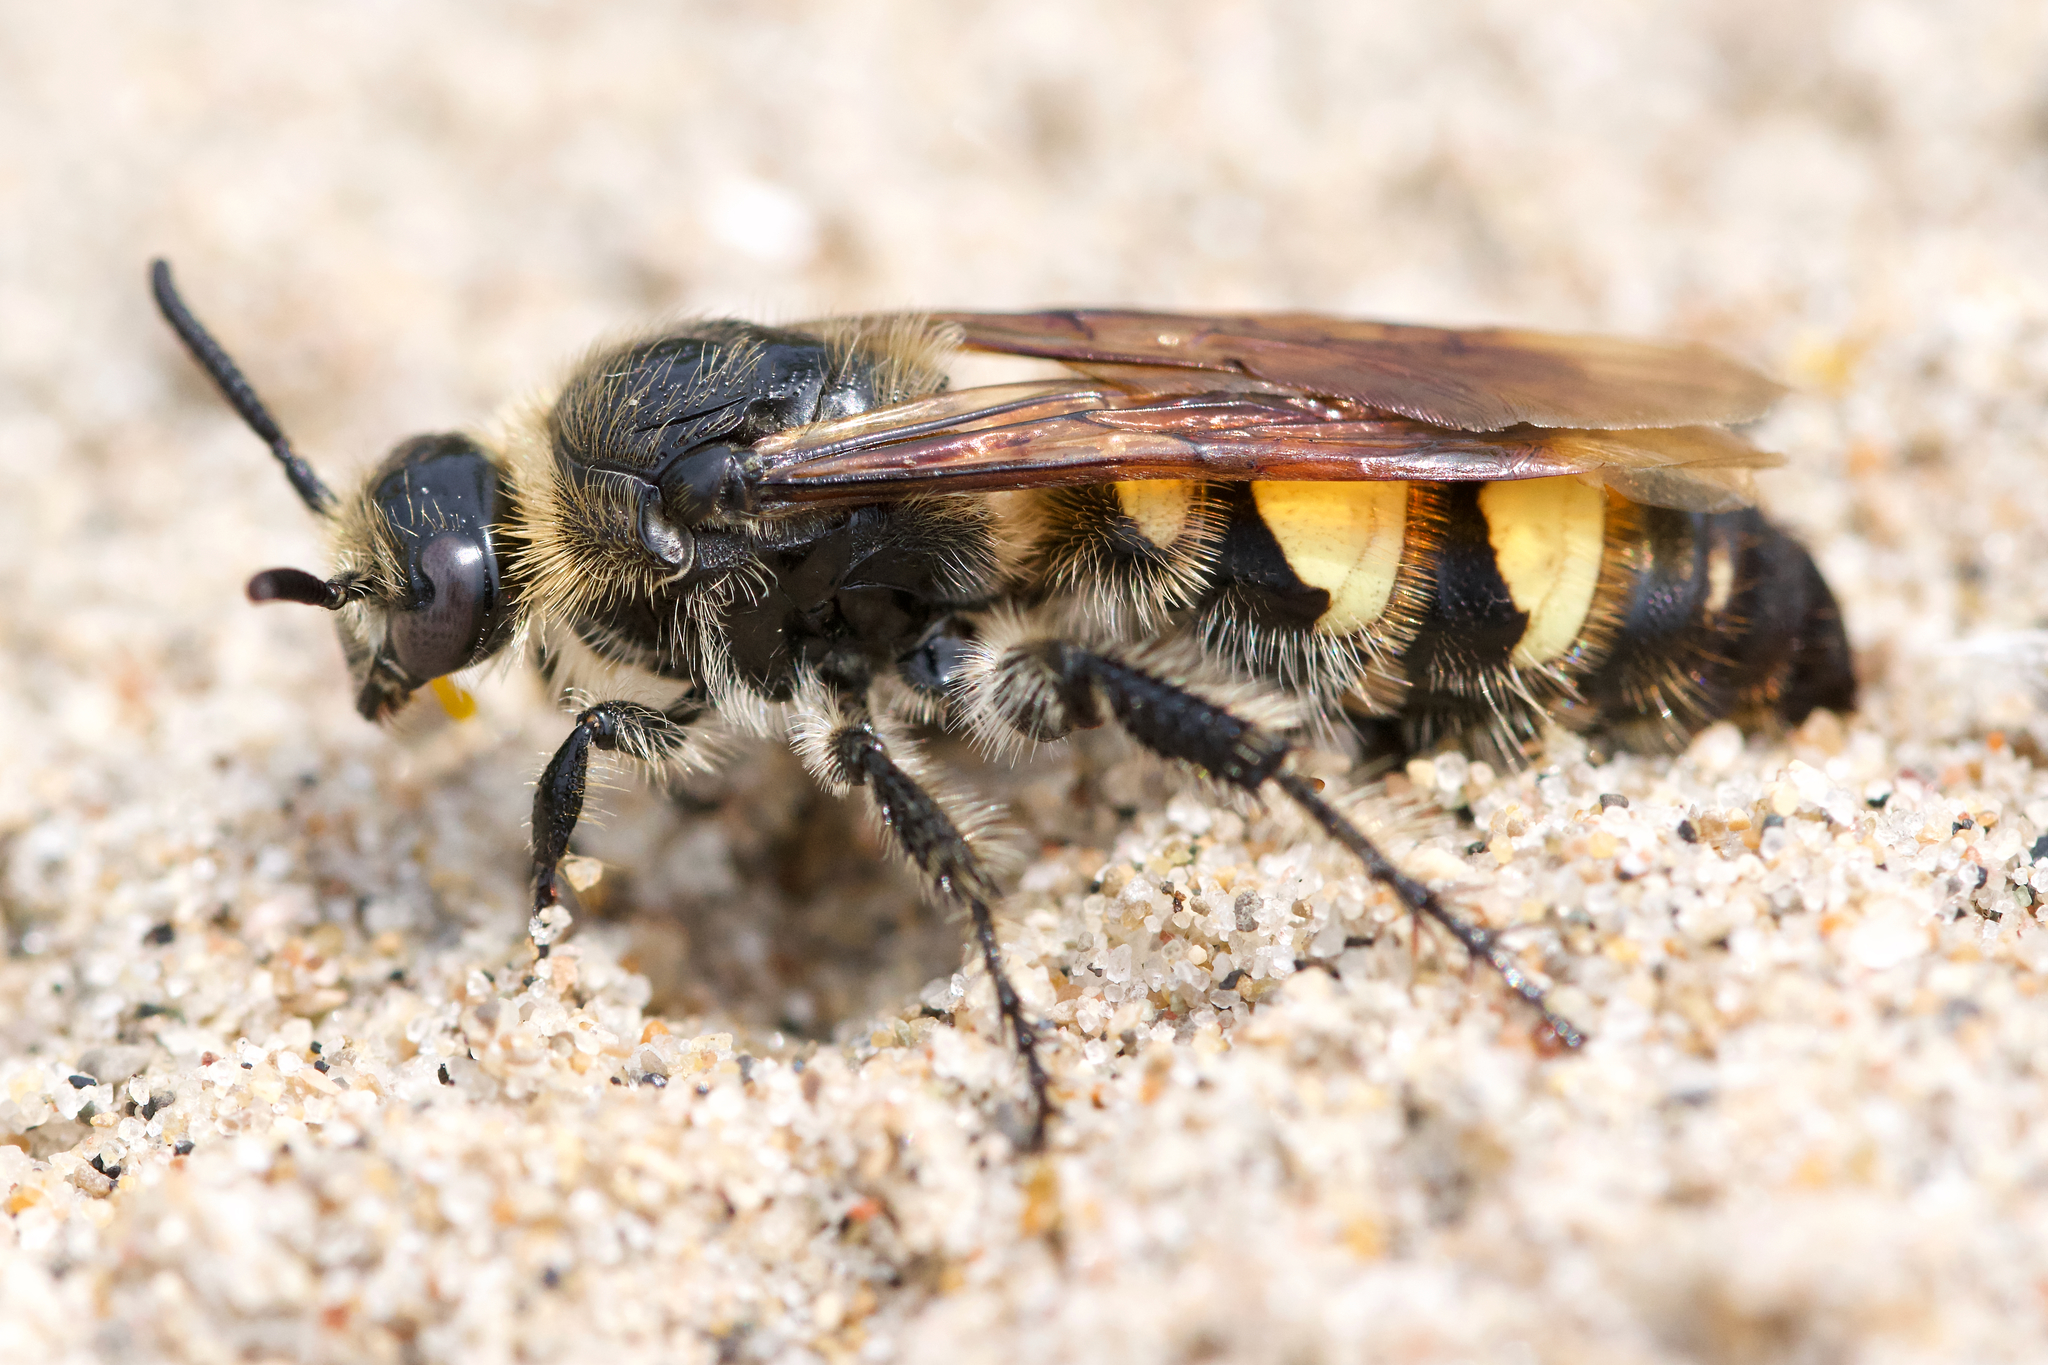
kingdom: Animalia
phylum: Arthropoda
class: Insecta
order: Hymenoptera
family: Scoliidae
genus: Dielis
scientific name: Dielis
